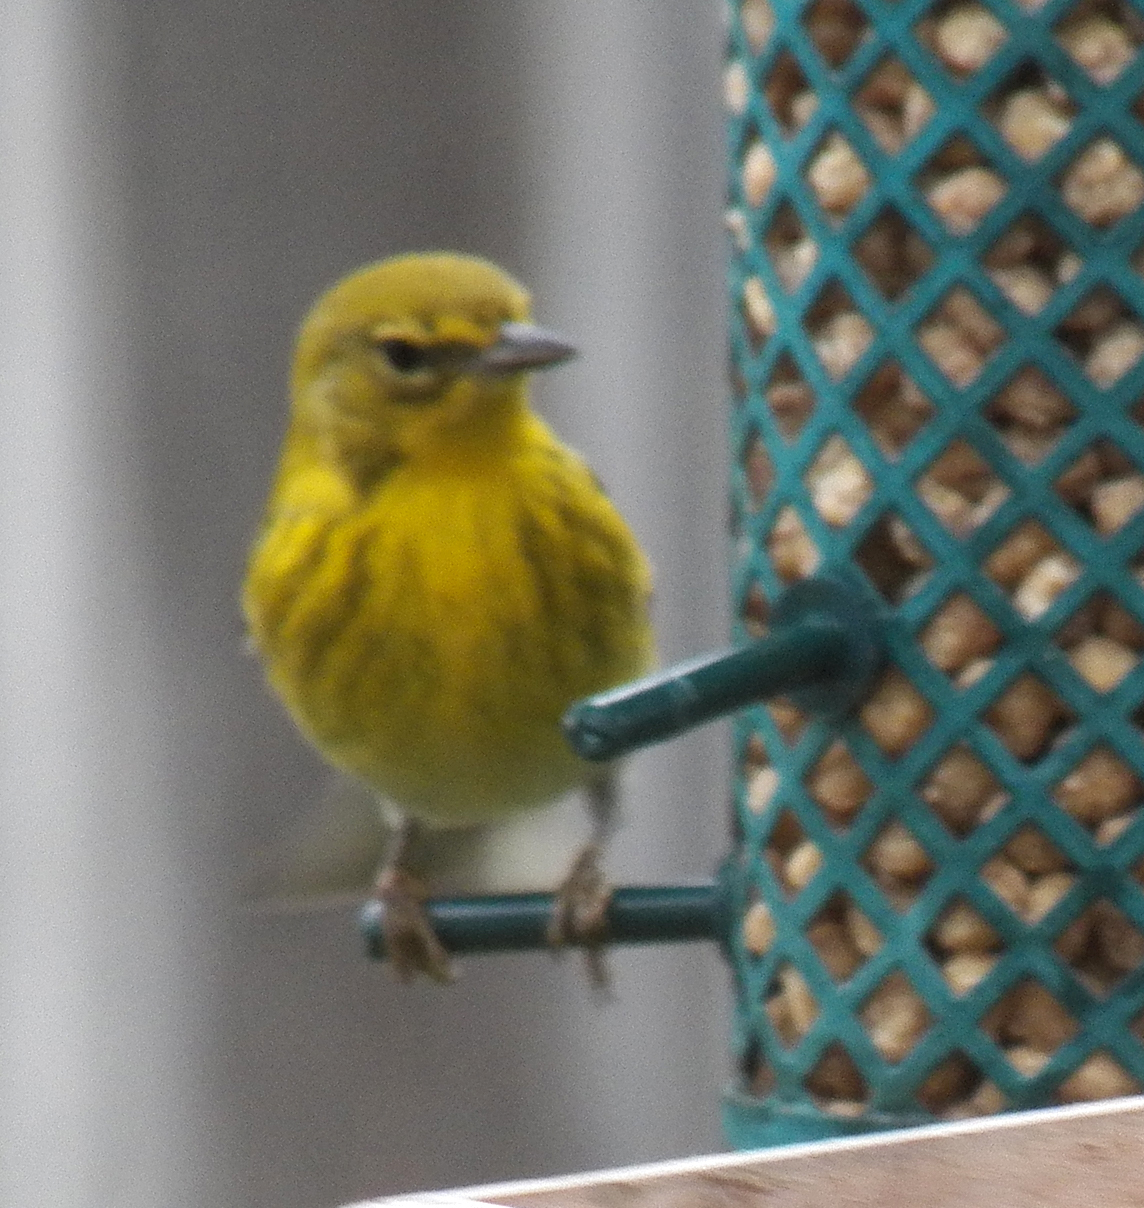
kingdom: Animalia
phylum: Chordata
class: Aves
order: Passeriformes
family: Parulidae
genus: Setophaga
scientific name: Setophaga pinus
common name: Pine warbler
